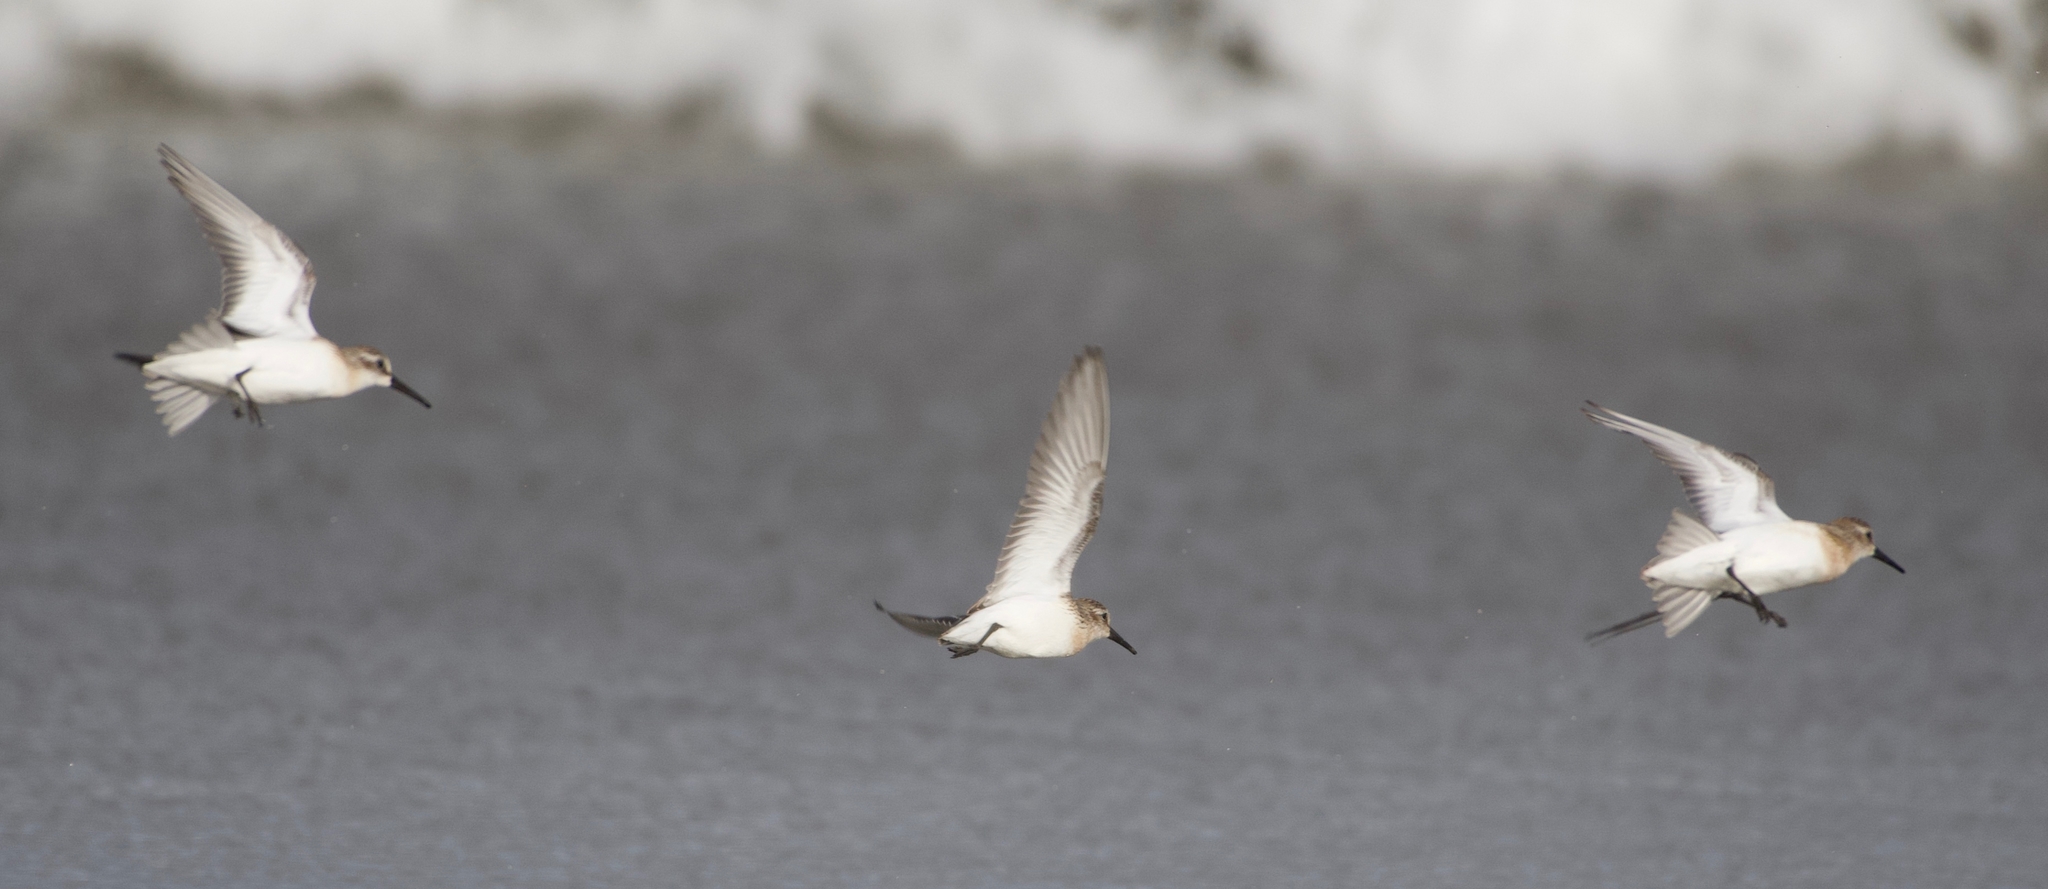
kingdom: Animalia
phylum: Chordata
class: Aves
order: Charadriiformes
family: Scolopacidae
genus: Calidris
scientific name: Calidris mauri
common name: Western sandpiper
